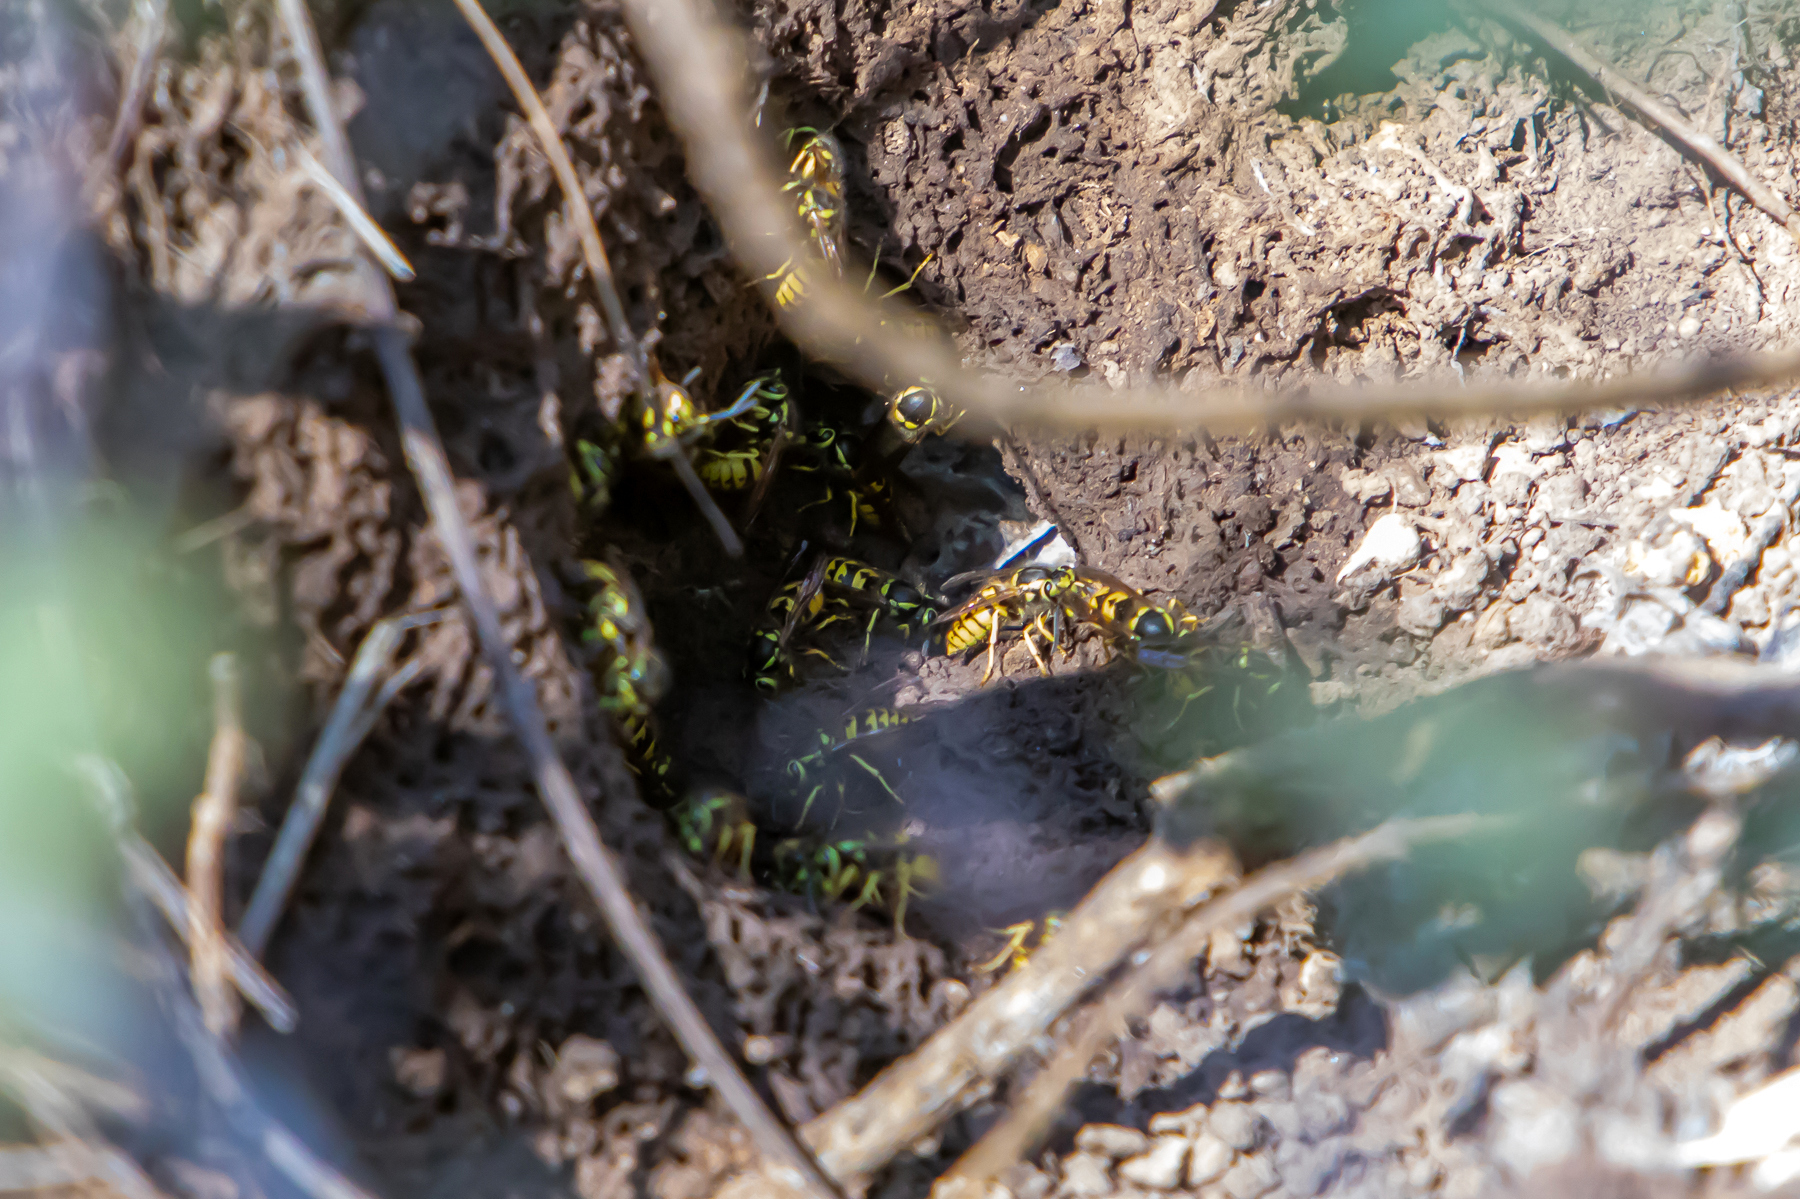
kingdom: Animalia
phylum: Arthropoda
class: Insecta
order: Hymenoptera
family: Vespidae
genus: Vespula
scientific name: Vespula pensylvanica
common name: Western yellowjacket
